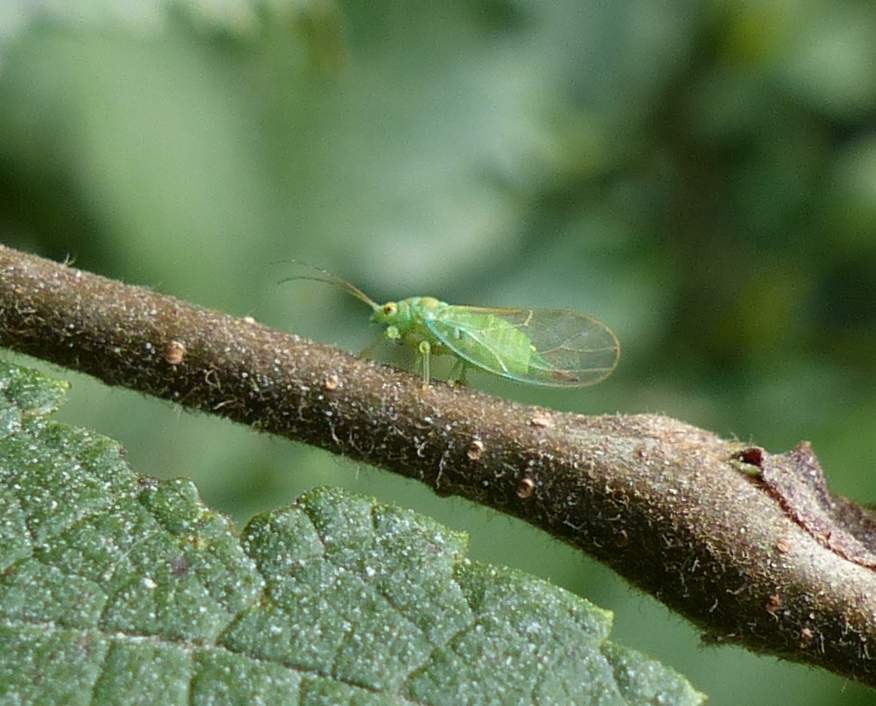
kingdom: Animalia
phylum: Arthropoda
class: Insecta
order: Hemiptera
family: Psyllidae
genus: Psylla
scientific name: Psylla viridescens
